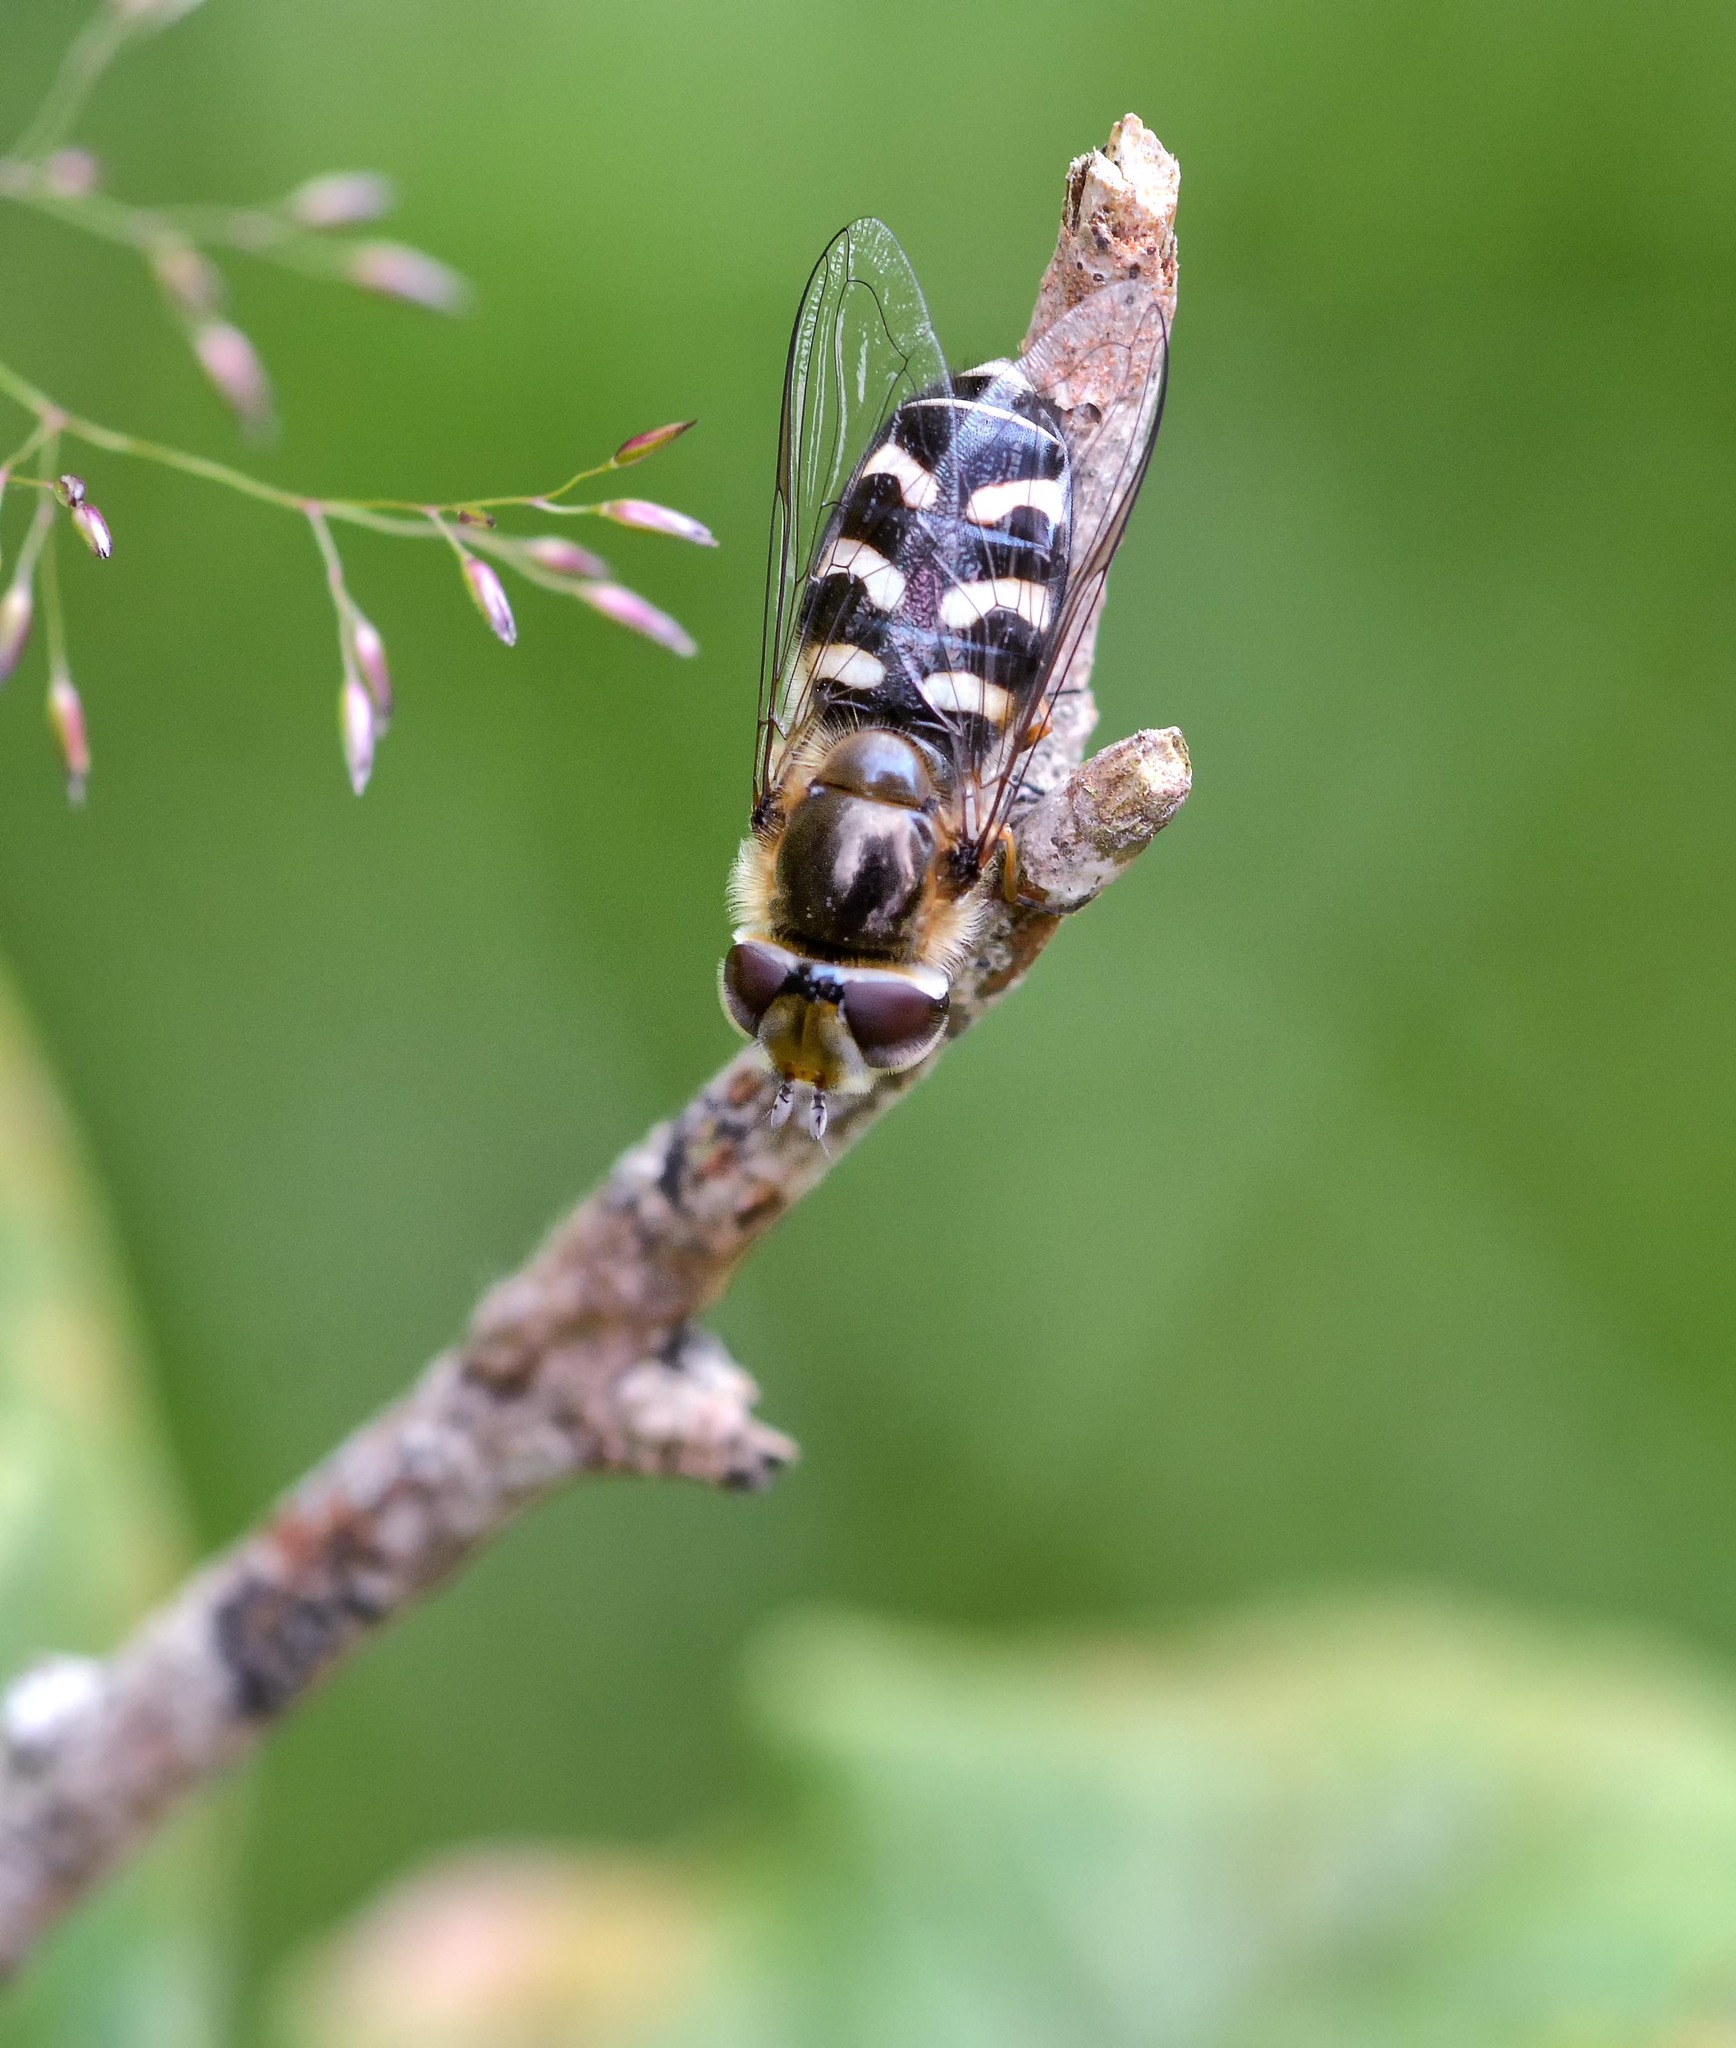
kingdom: Animalia
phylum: Arthropoda
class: Insecta
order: Diptera
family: Syrphidae
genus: Scaeva
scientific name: Scaeva pyrastri
